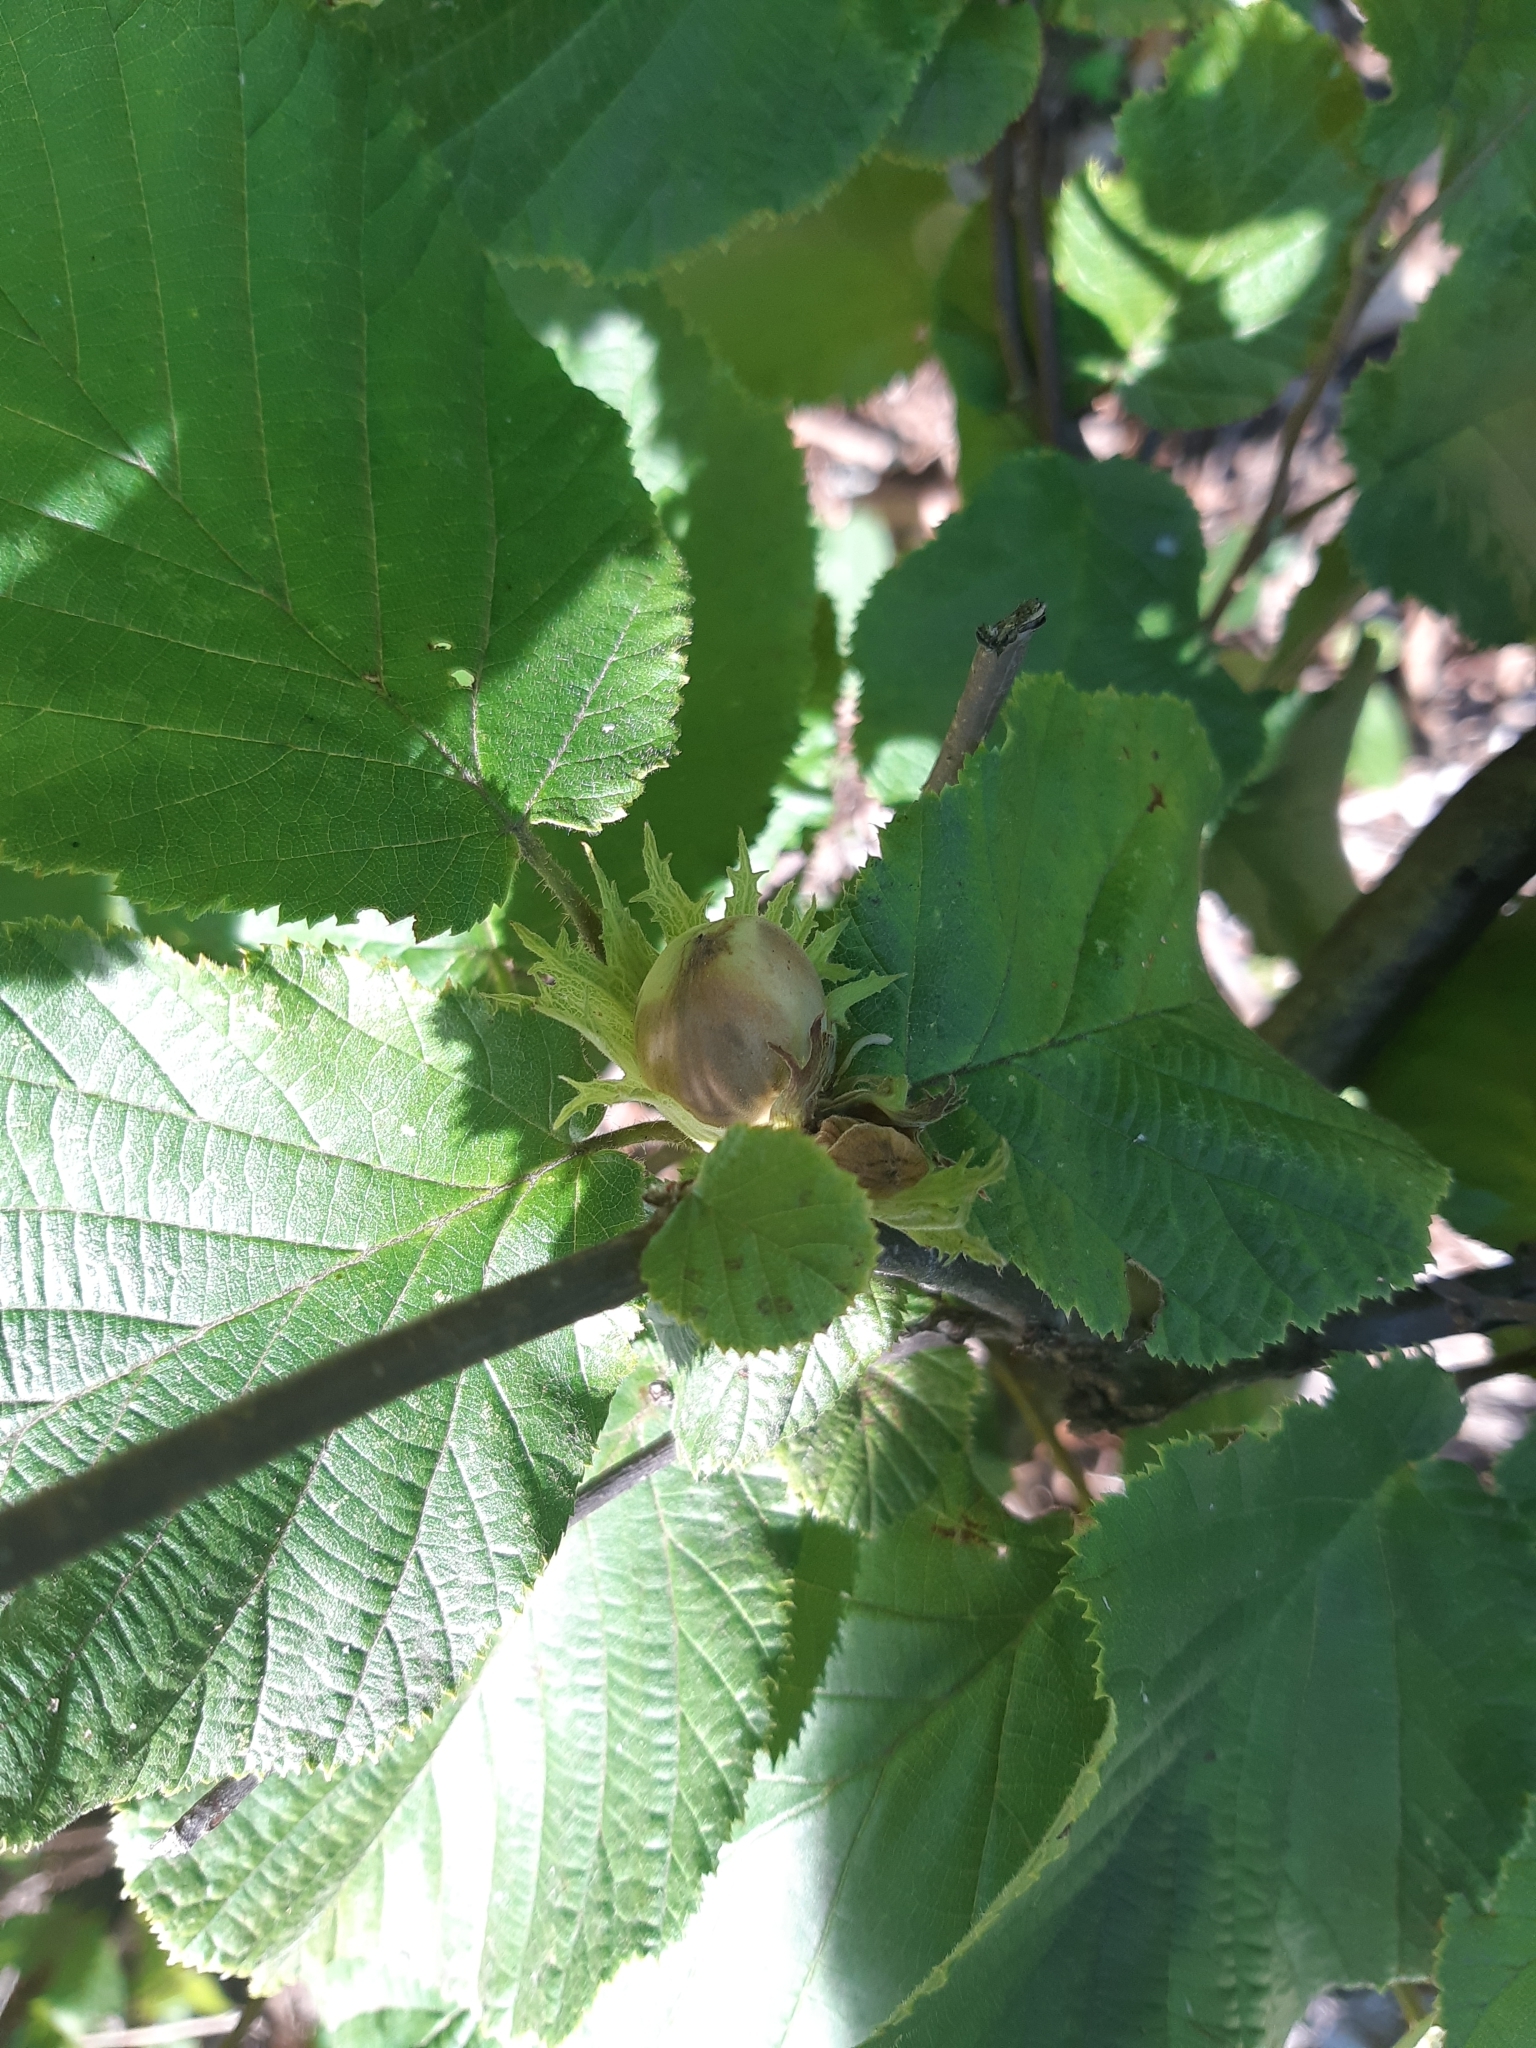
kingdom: Plantae
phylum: Tracheophyta
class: Magnoliopsida
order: Fagales
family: Betulaceae
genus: Corylus
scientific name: Corylus avellana
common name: European hazel
